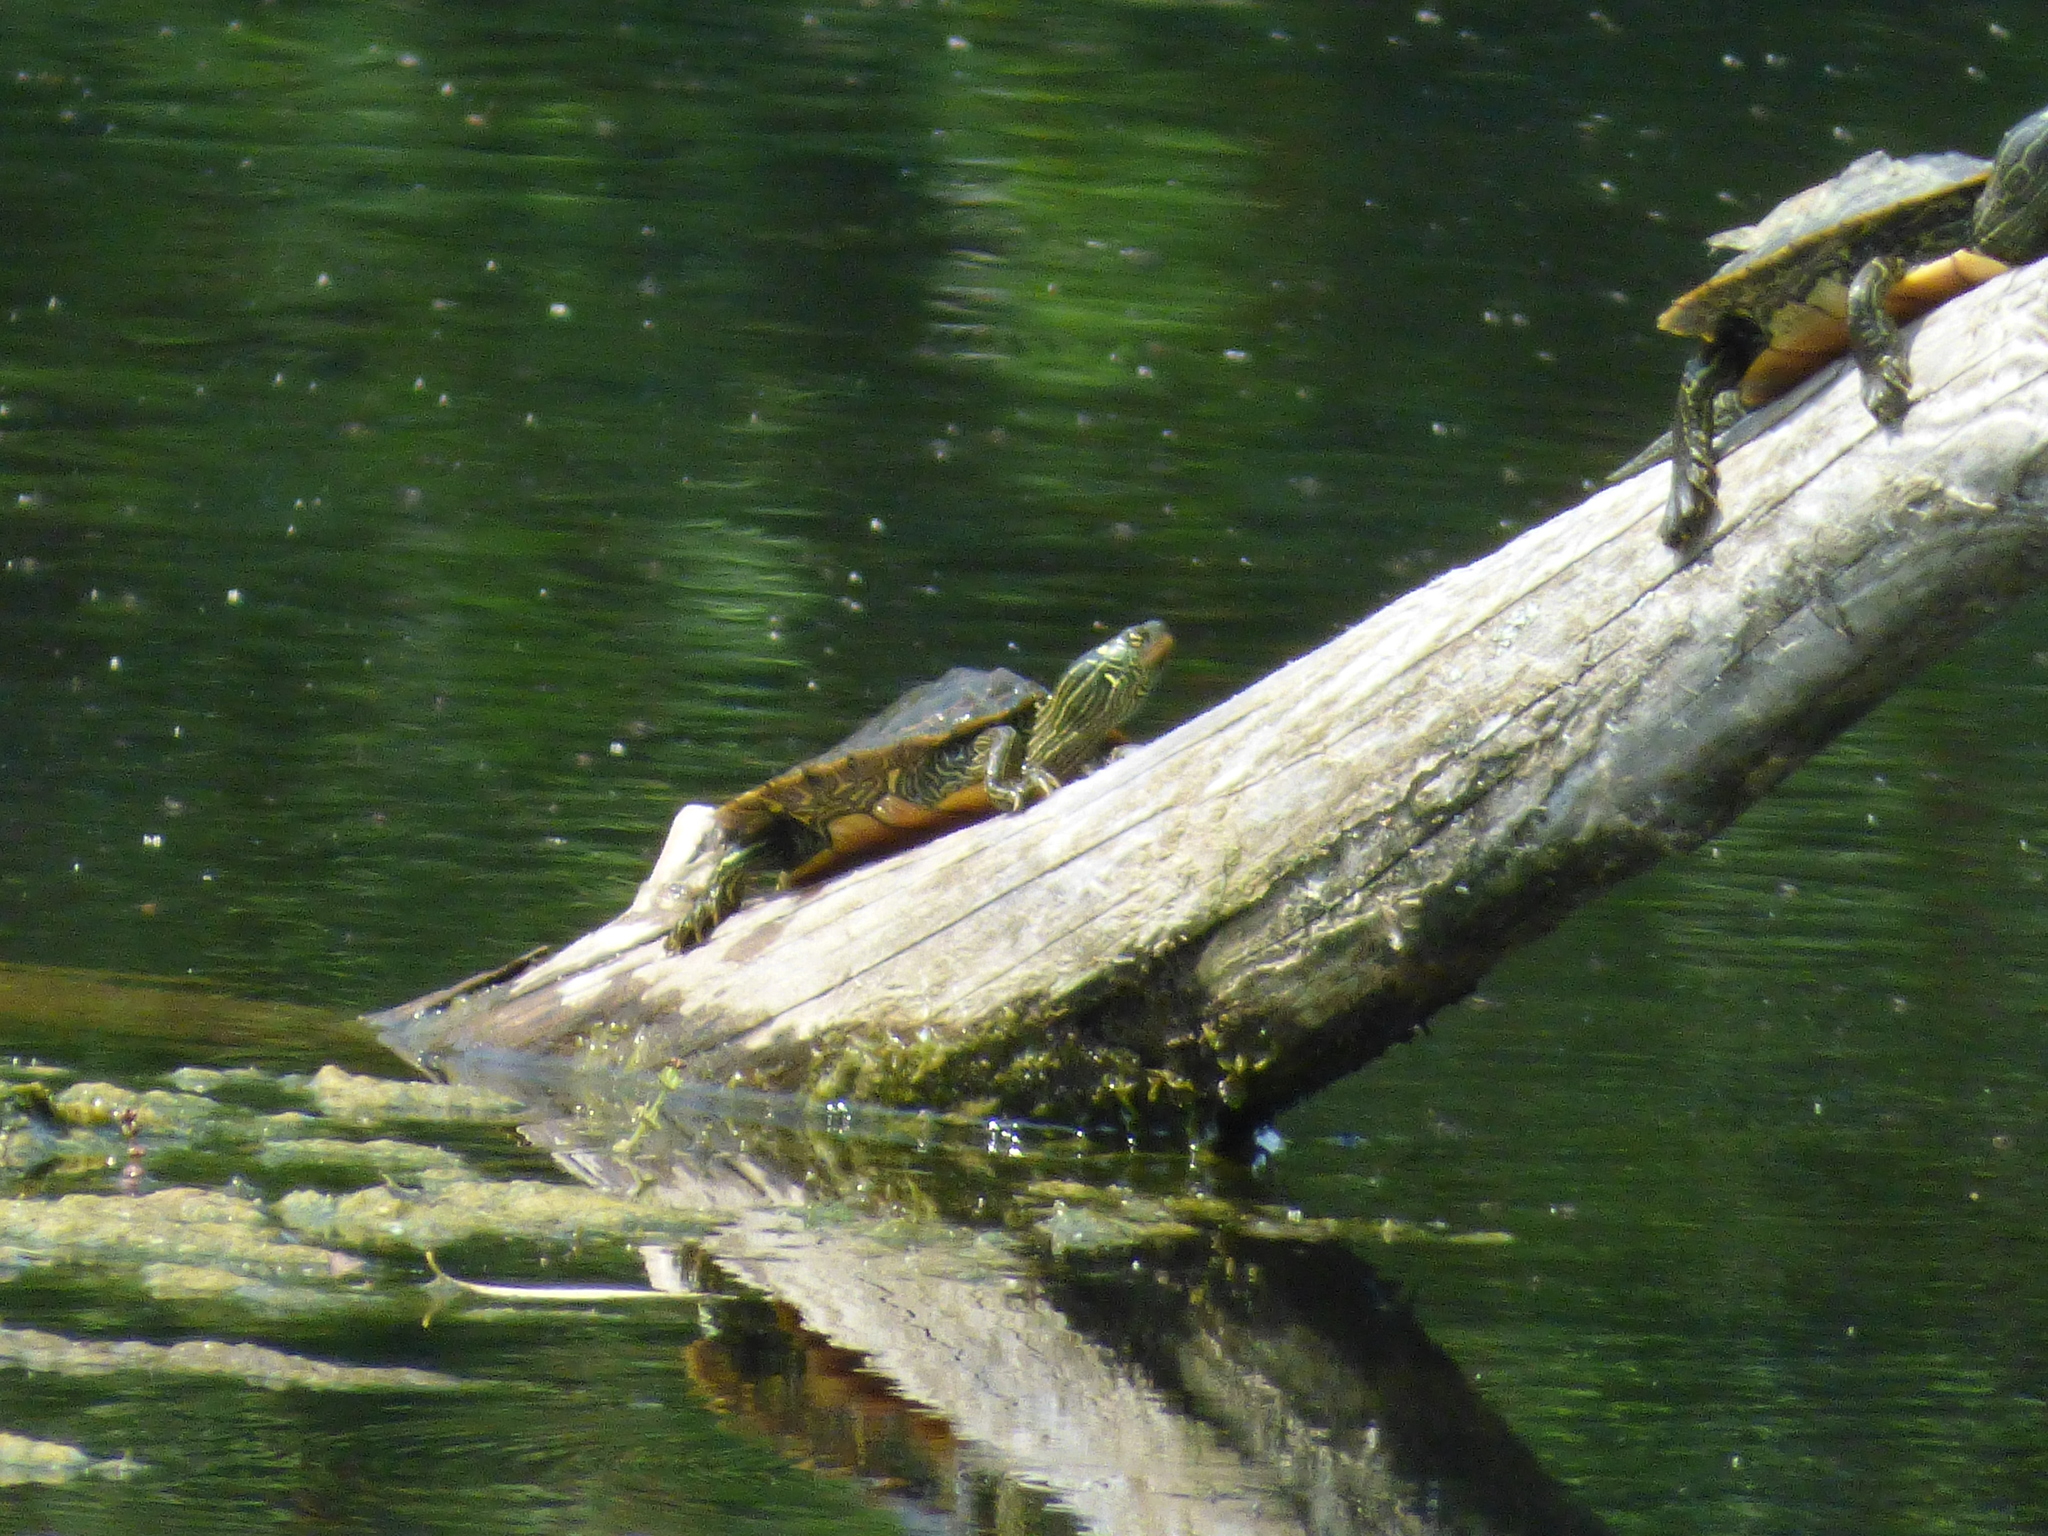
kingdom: Animalia
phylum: Chordata
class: Testudines
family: Emydidae
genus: Graptemys
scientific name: Graptemys geographica
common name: Common map turtle
